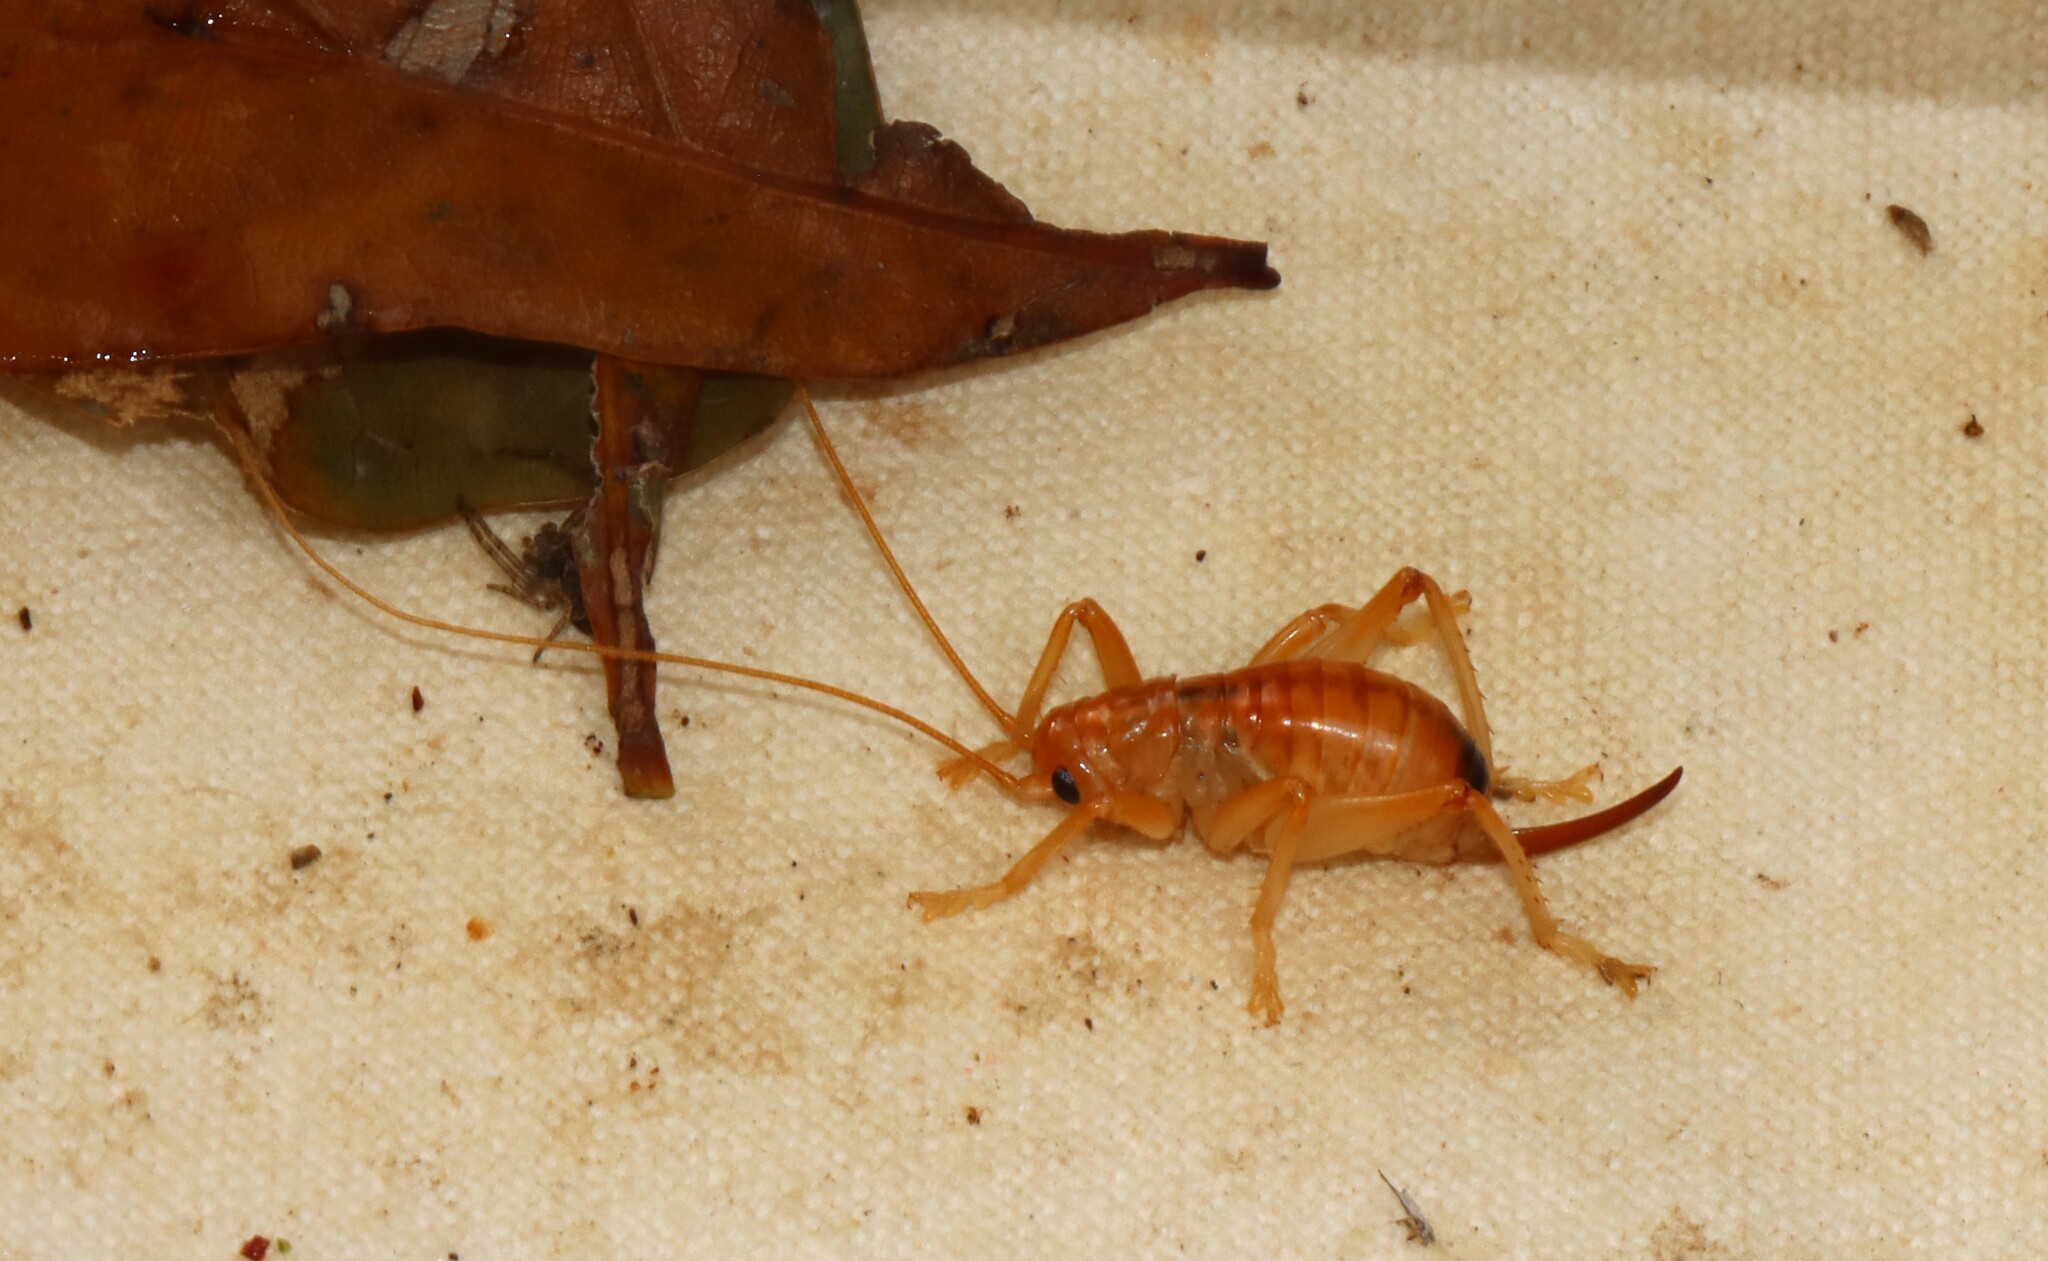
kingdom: Animalia
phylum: Arthropoda
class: Insecta
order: Orthoptera
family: Gryllacrididae
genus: Camptonotus
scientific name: Camptonotus carolinensis
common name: Carolina leaf-roller
